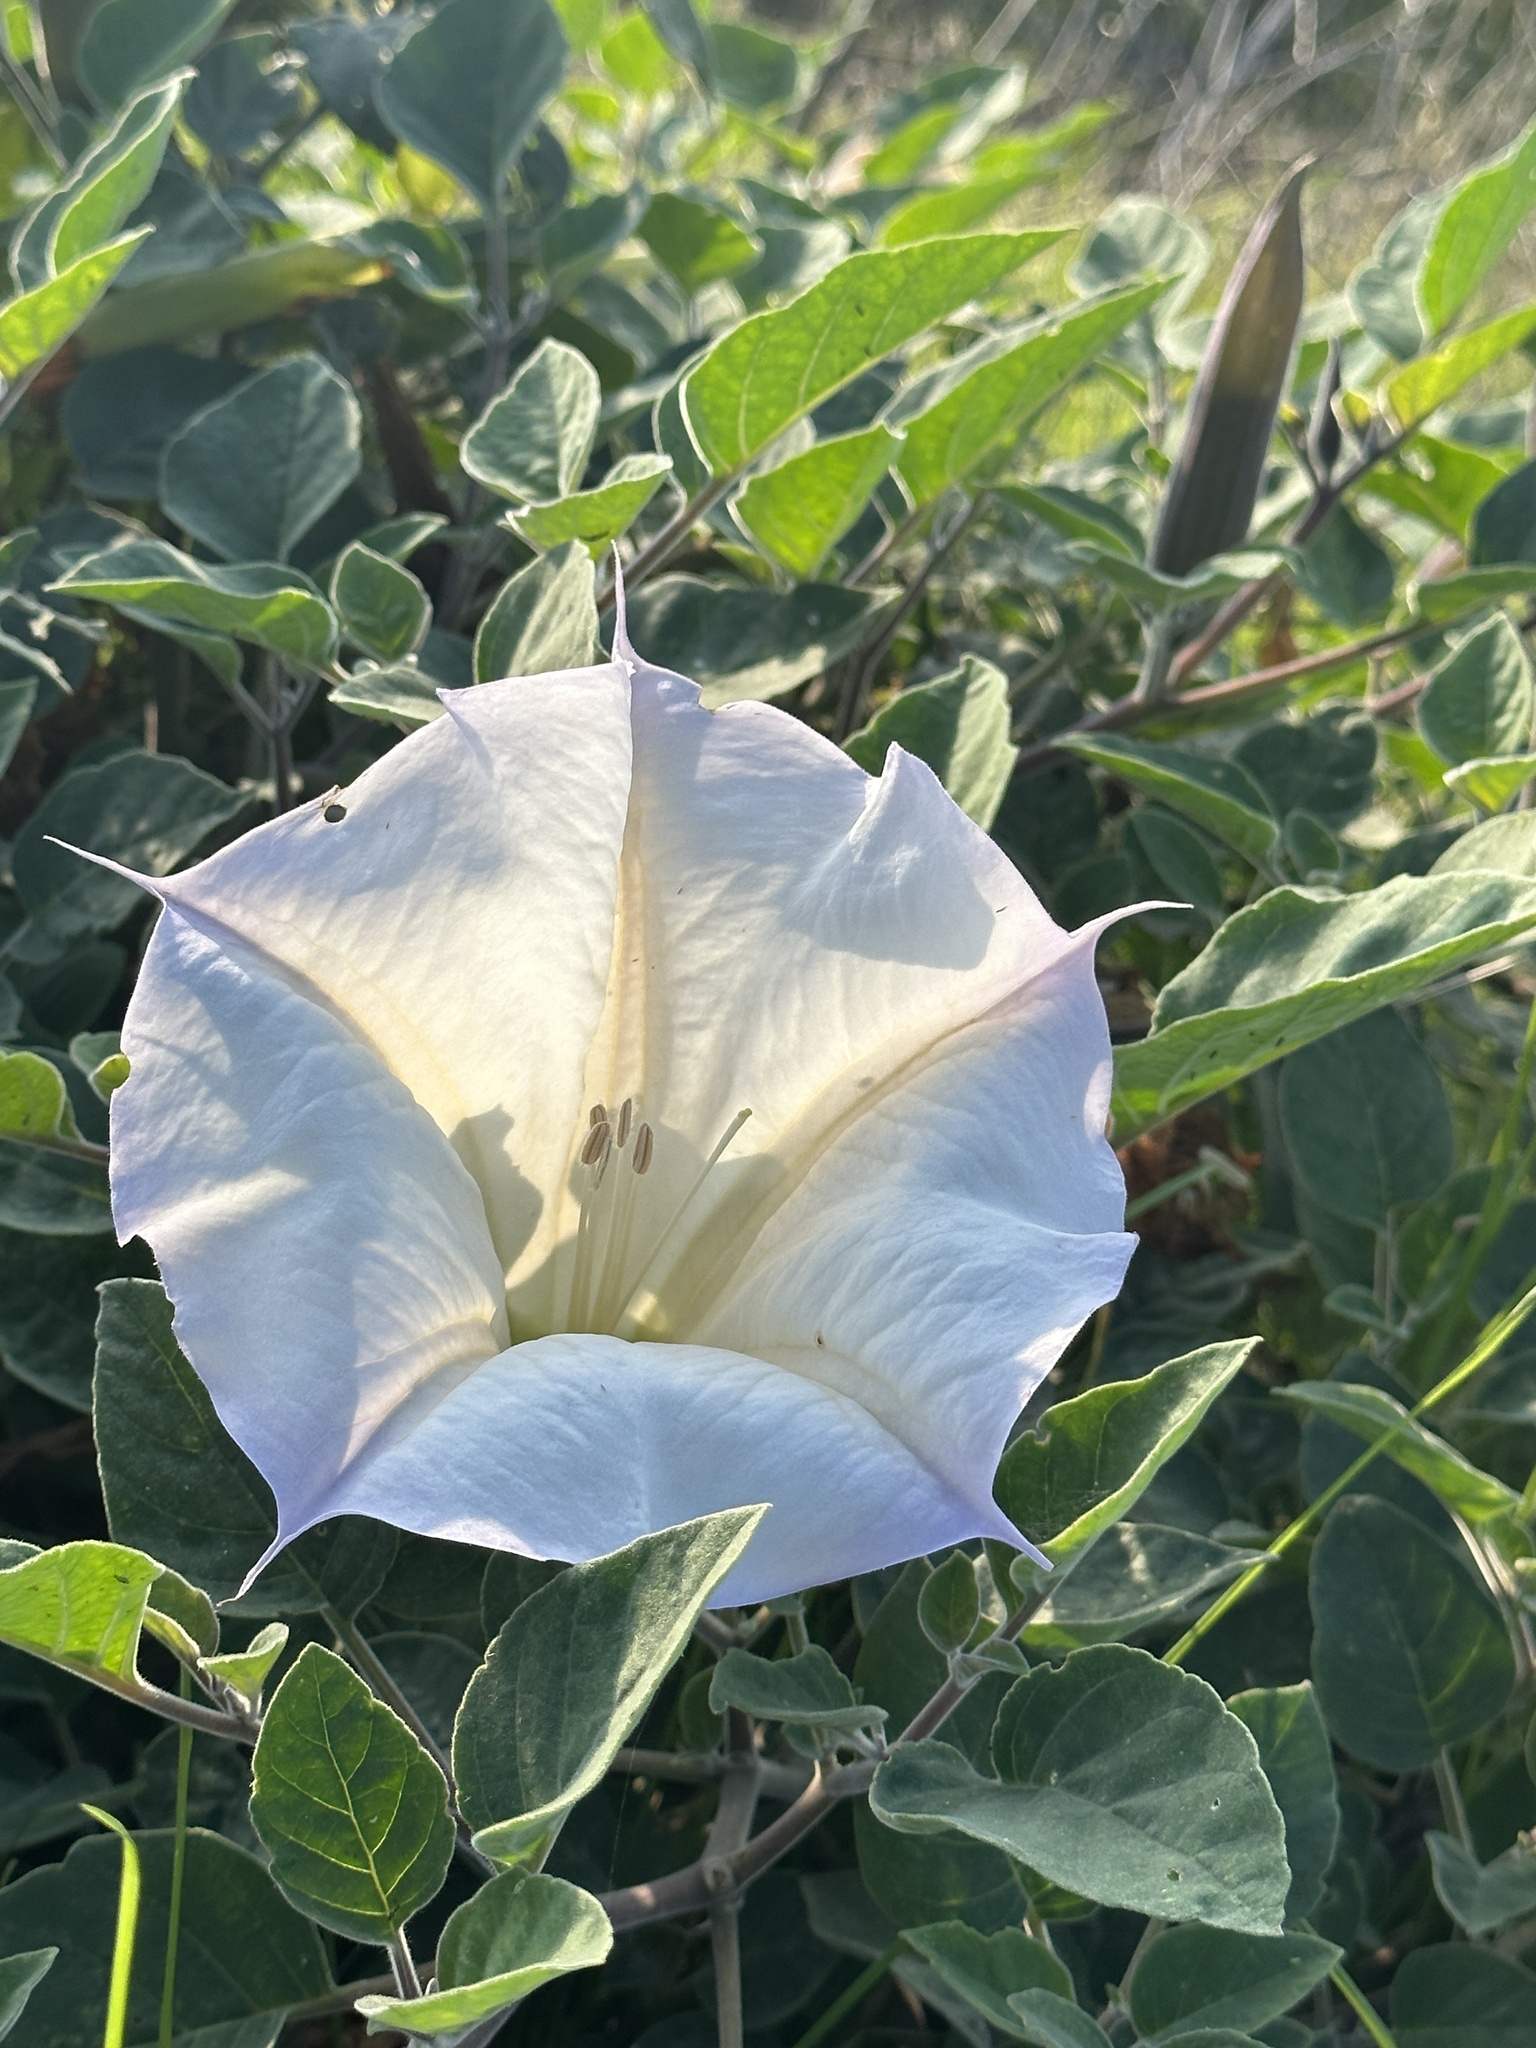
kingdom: Plantae
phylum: Tracheophyta
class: Magnoliopsida
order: Solanales
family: Solanaceae
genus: Datura
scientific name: Datura wrightii
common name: Sacred thorn-apple
